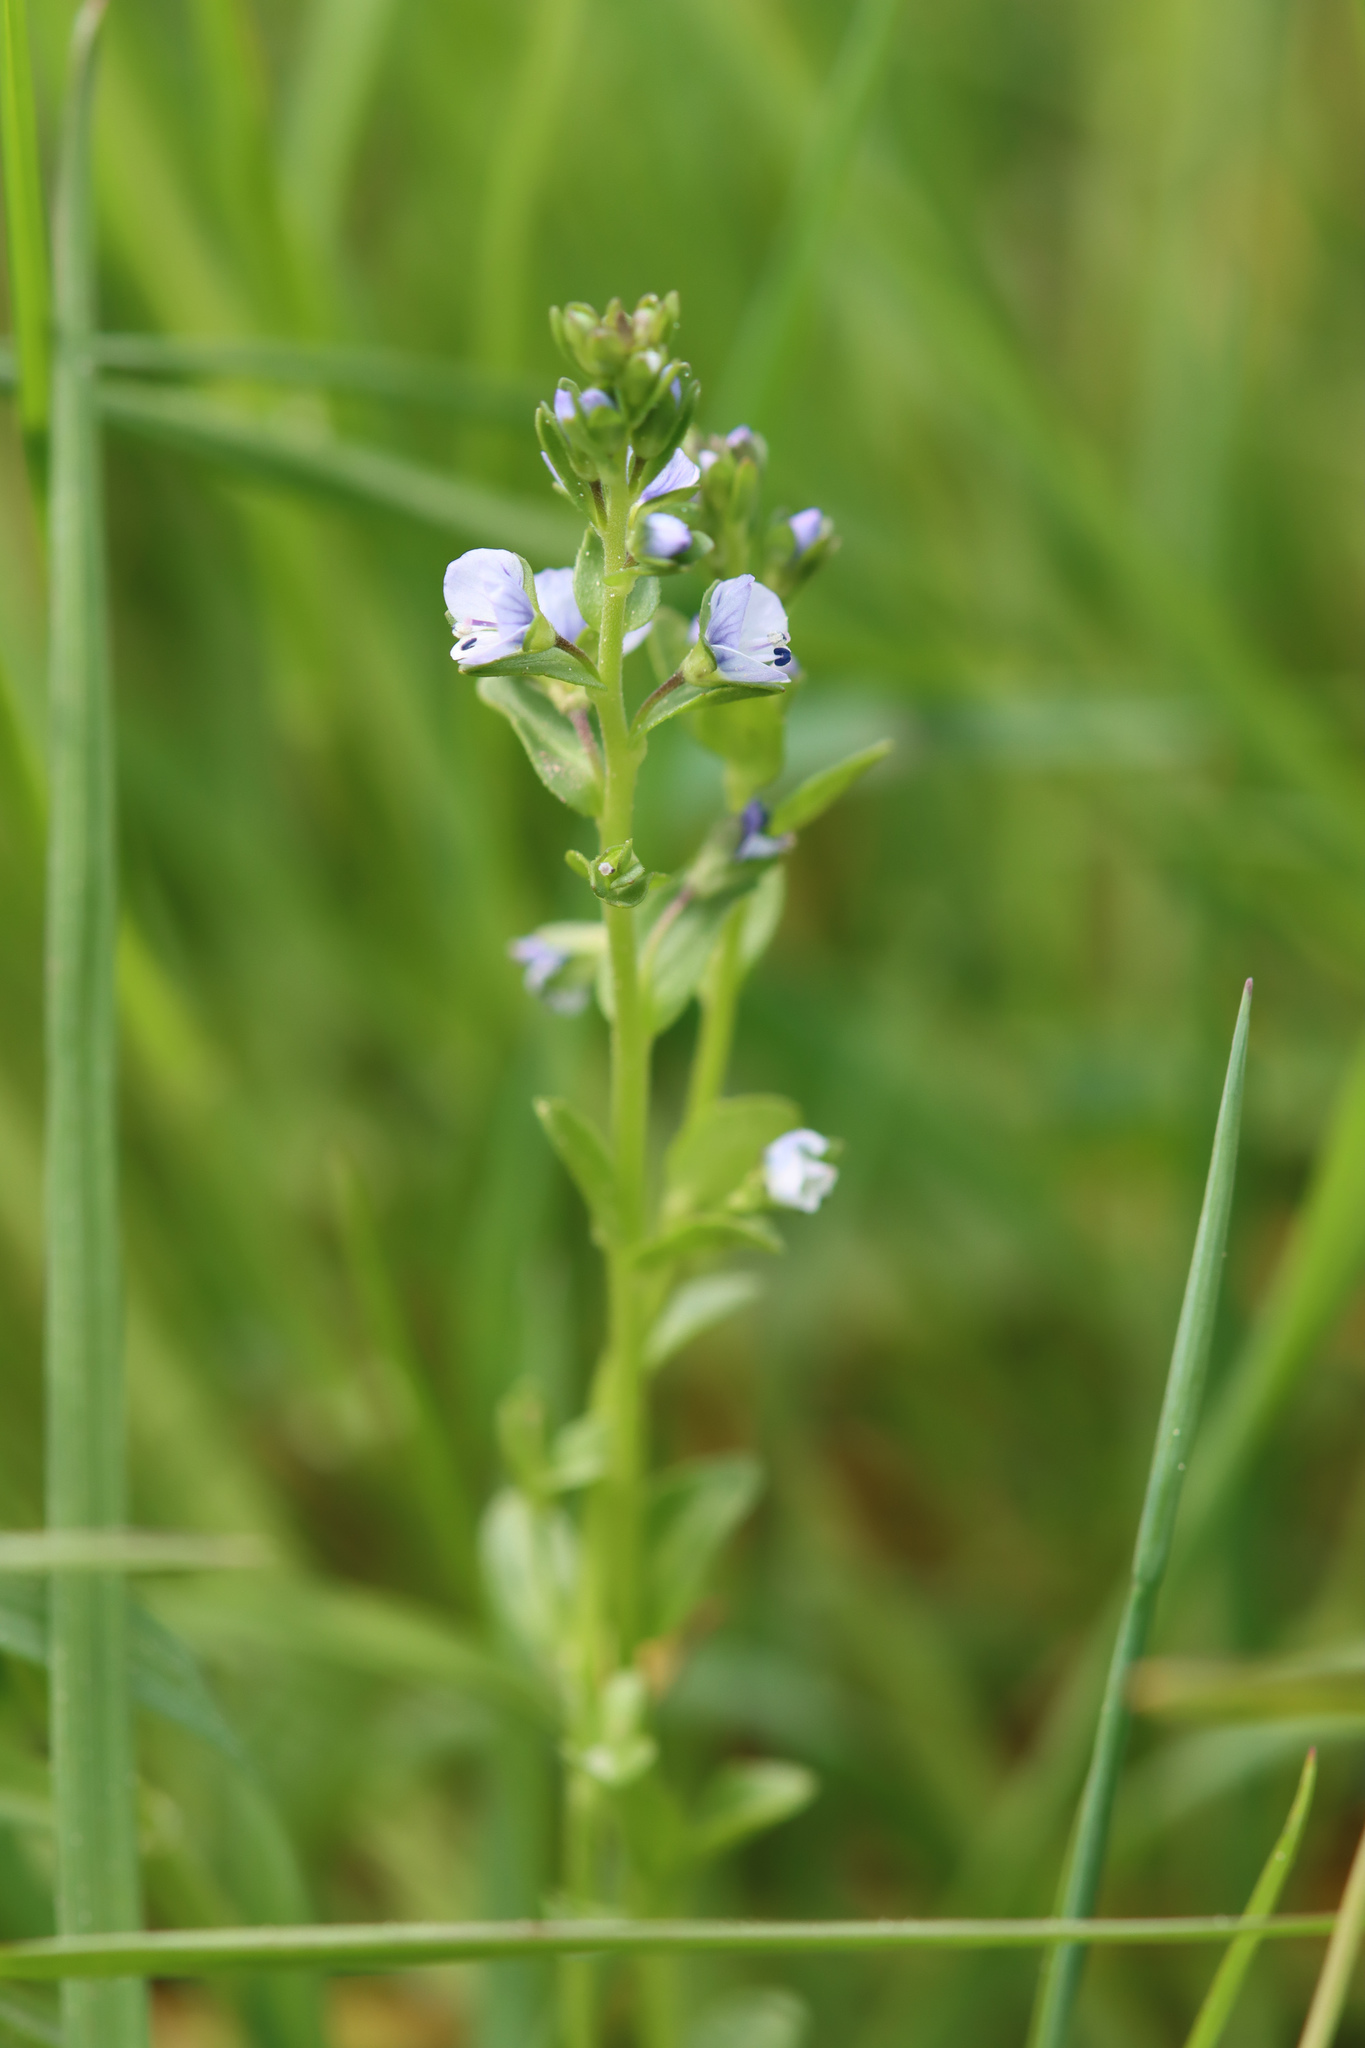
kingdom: Plantae
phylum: Tracheophyta
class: Magnoliopsida
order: Lamiales
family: Plantaginaceae
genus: Veronica
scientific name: Veronica serpyllifolia
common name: Thyme-leaved speedwell
